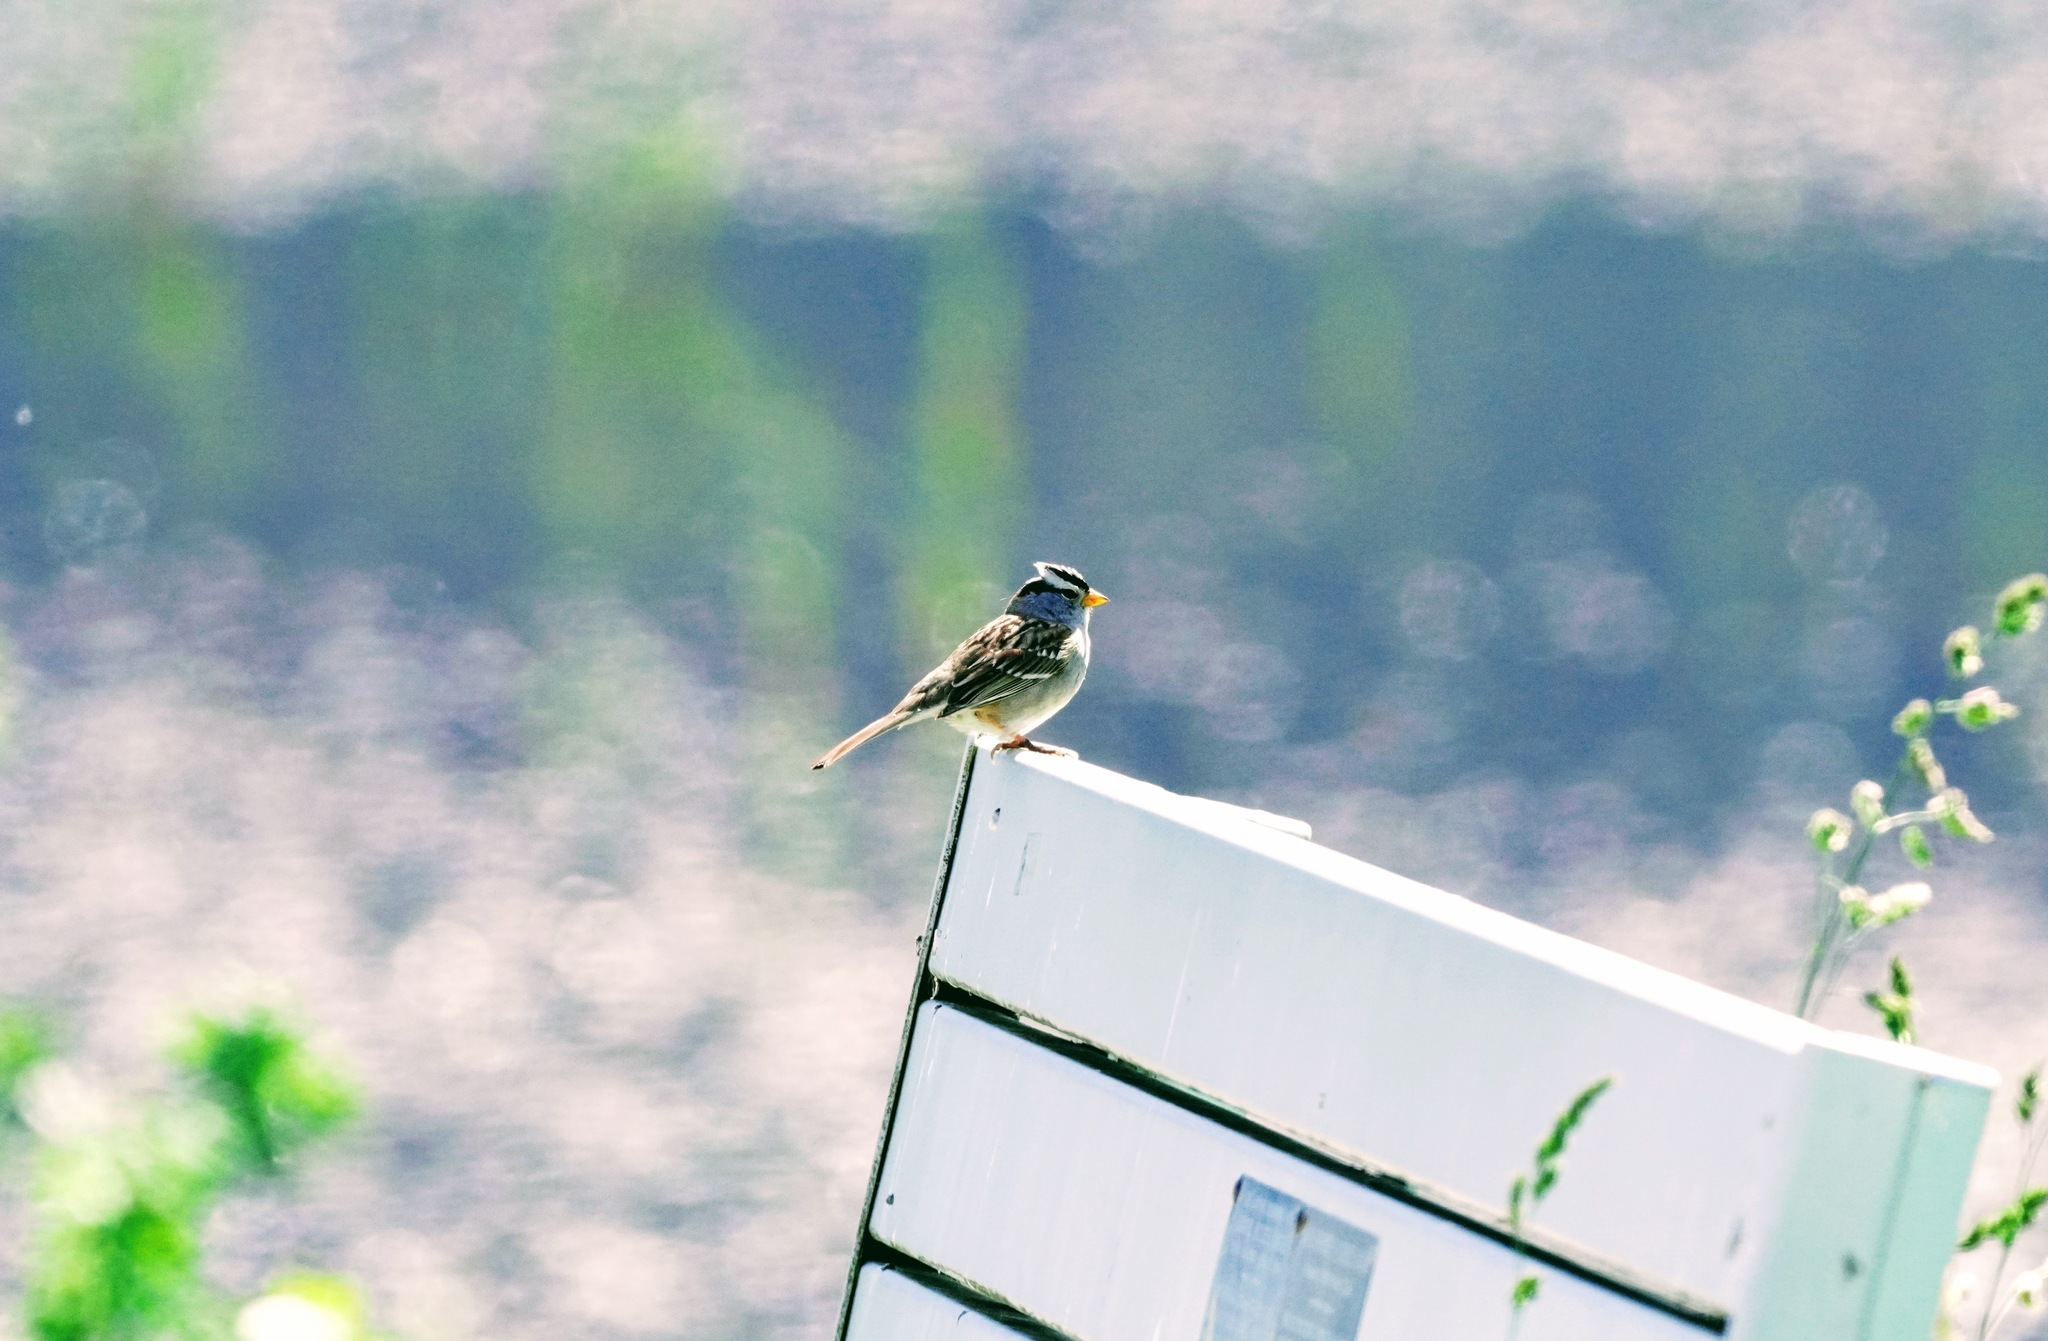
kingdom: Animalia
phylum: Chordata
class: Aves
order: Passeriformes
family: Passerellidae
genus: Zonotrichia
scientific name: Zonotrichia leucophrys
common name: White-crowned sparrow
